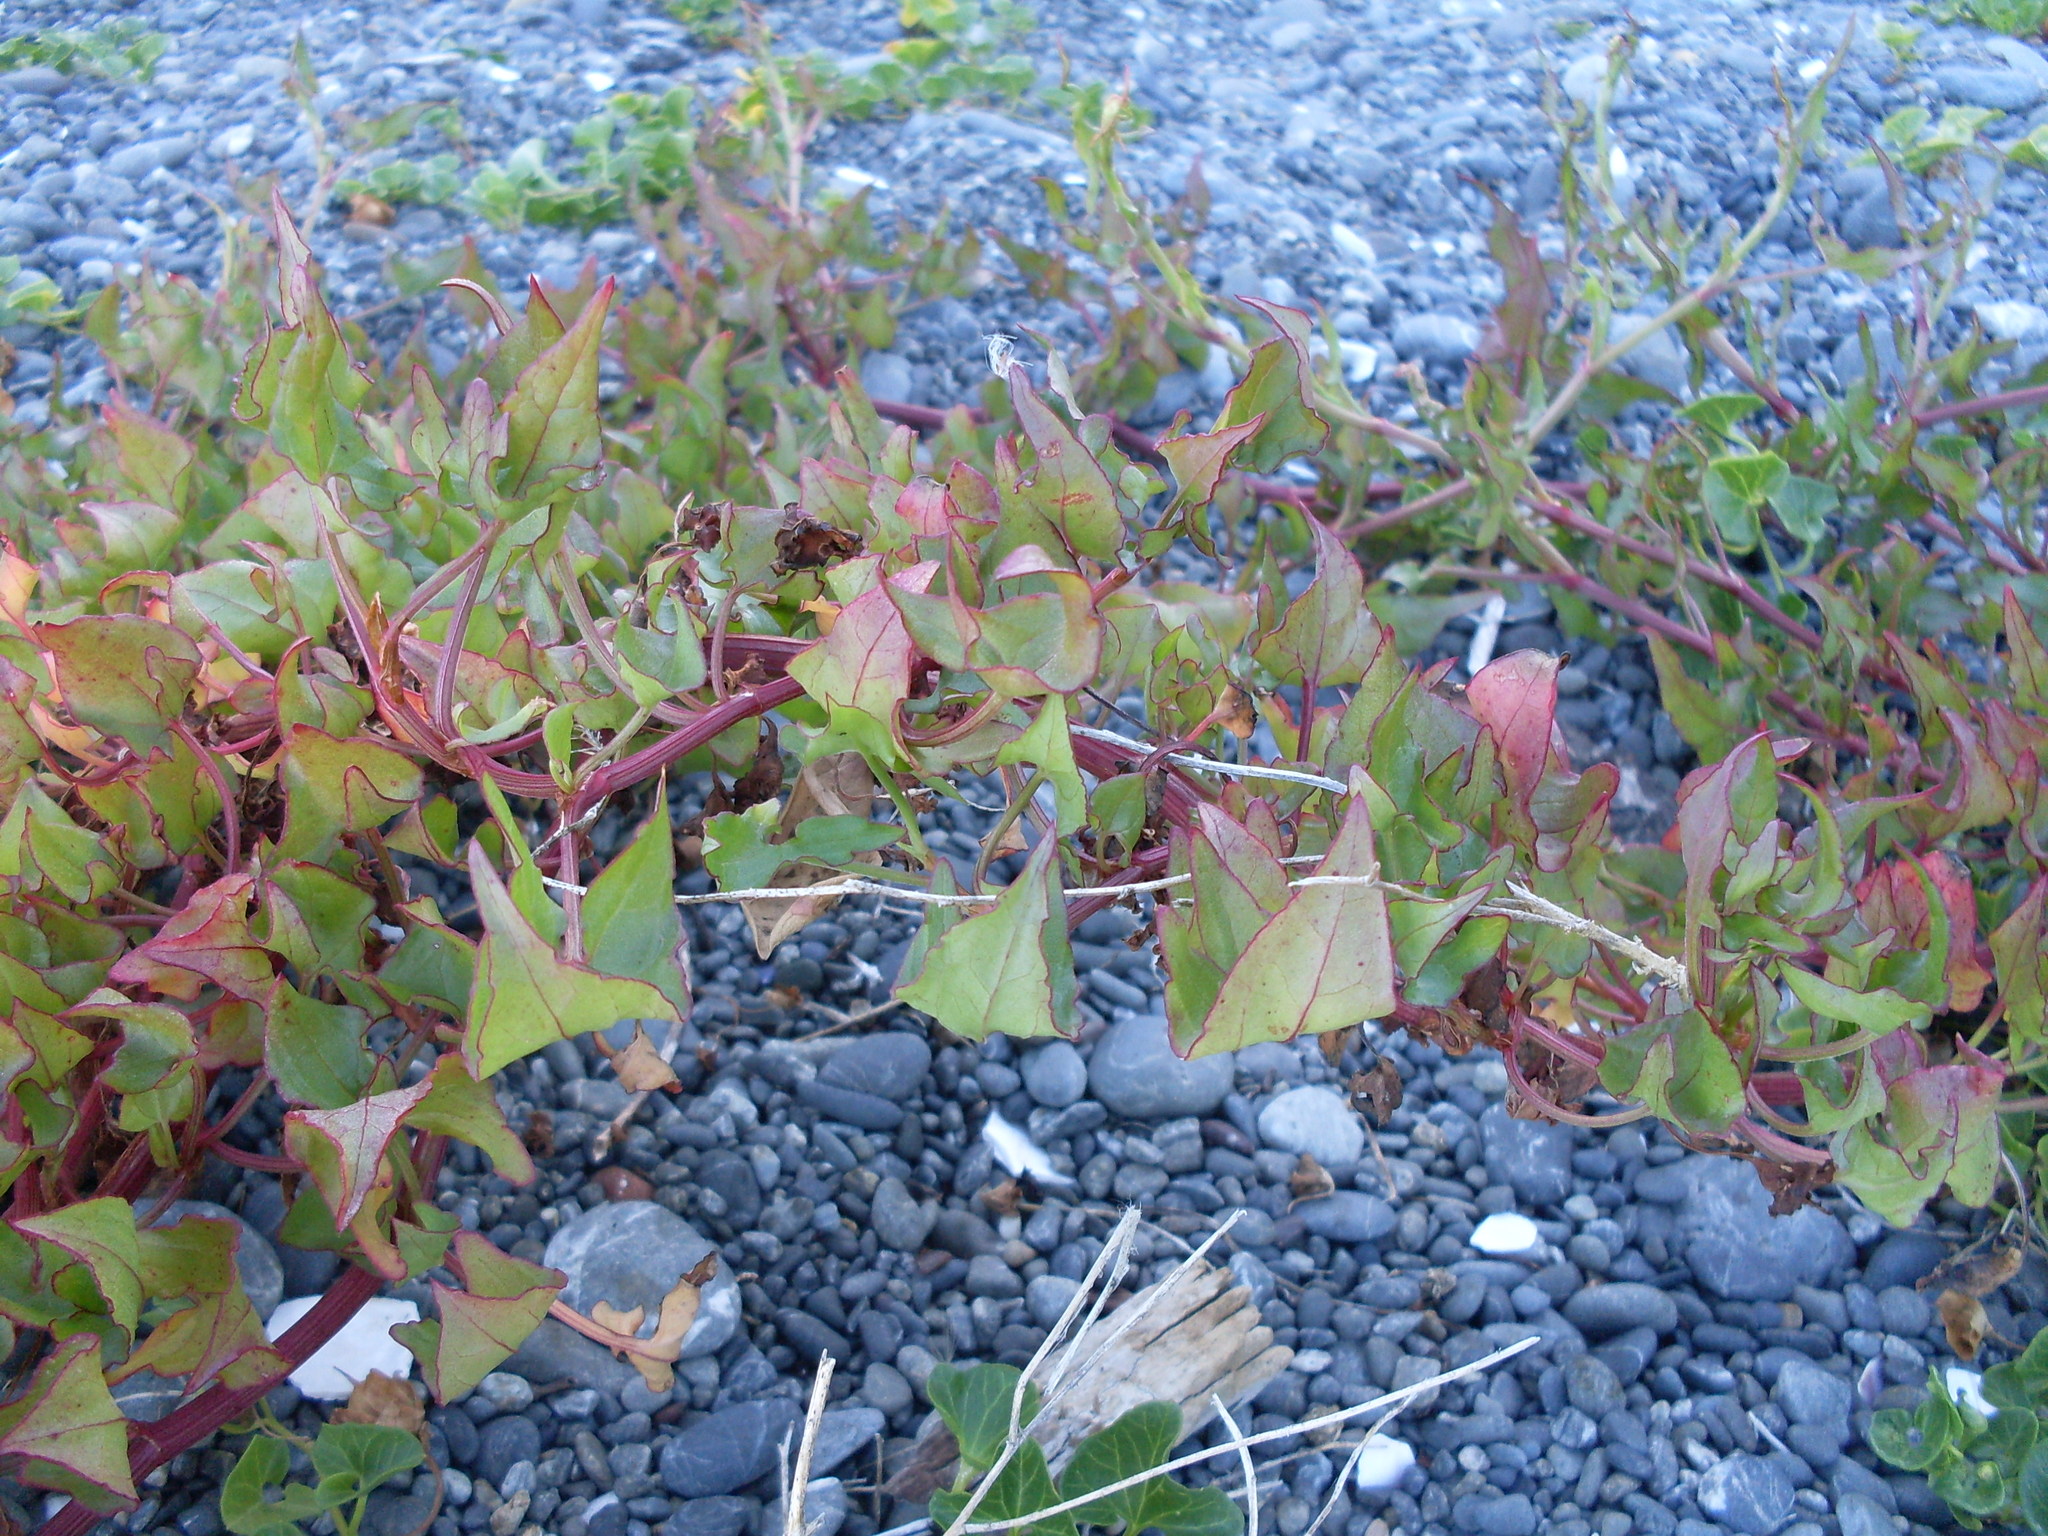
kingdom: Plantae
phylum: Tracheophyta
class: Magnoliopsida
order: Caryophyllales
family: Polygonaceae
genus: Rumex
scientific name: Rumex sagittatus
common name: Climbing dock
